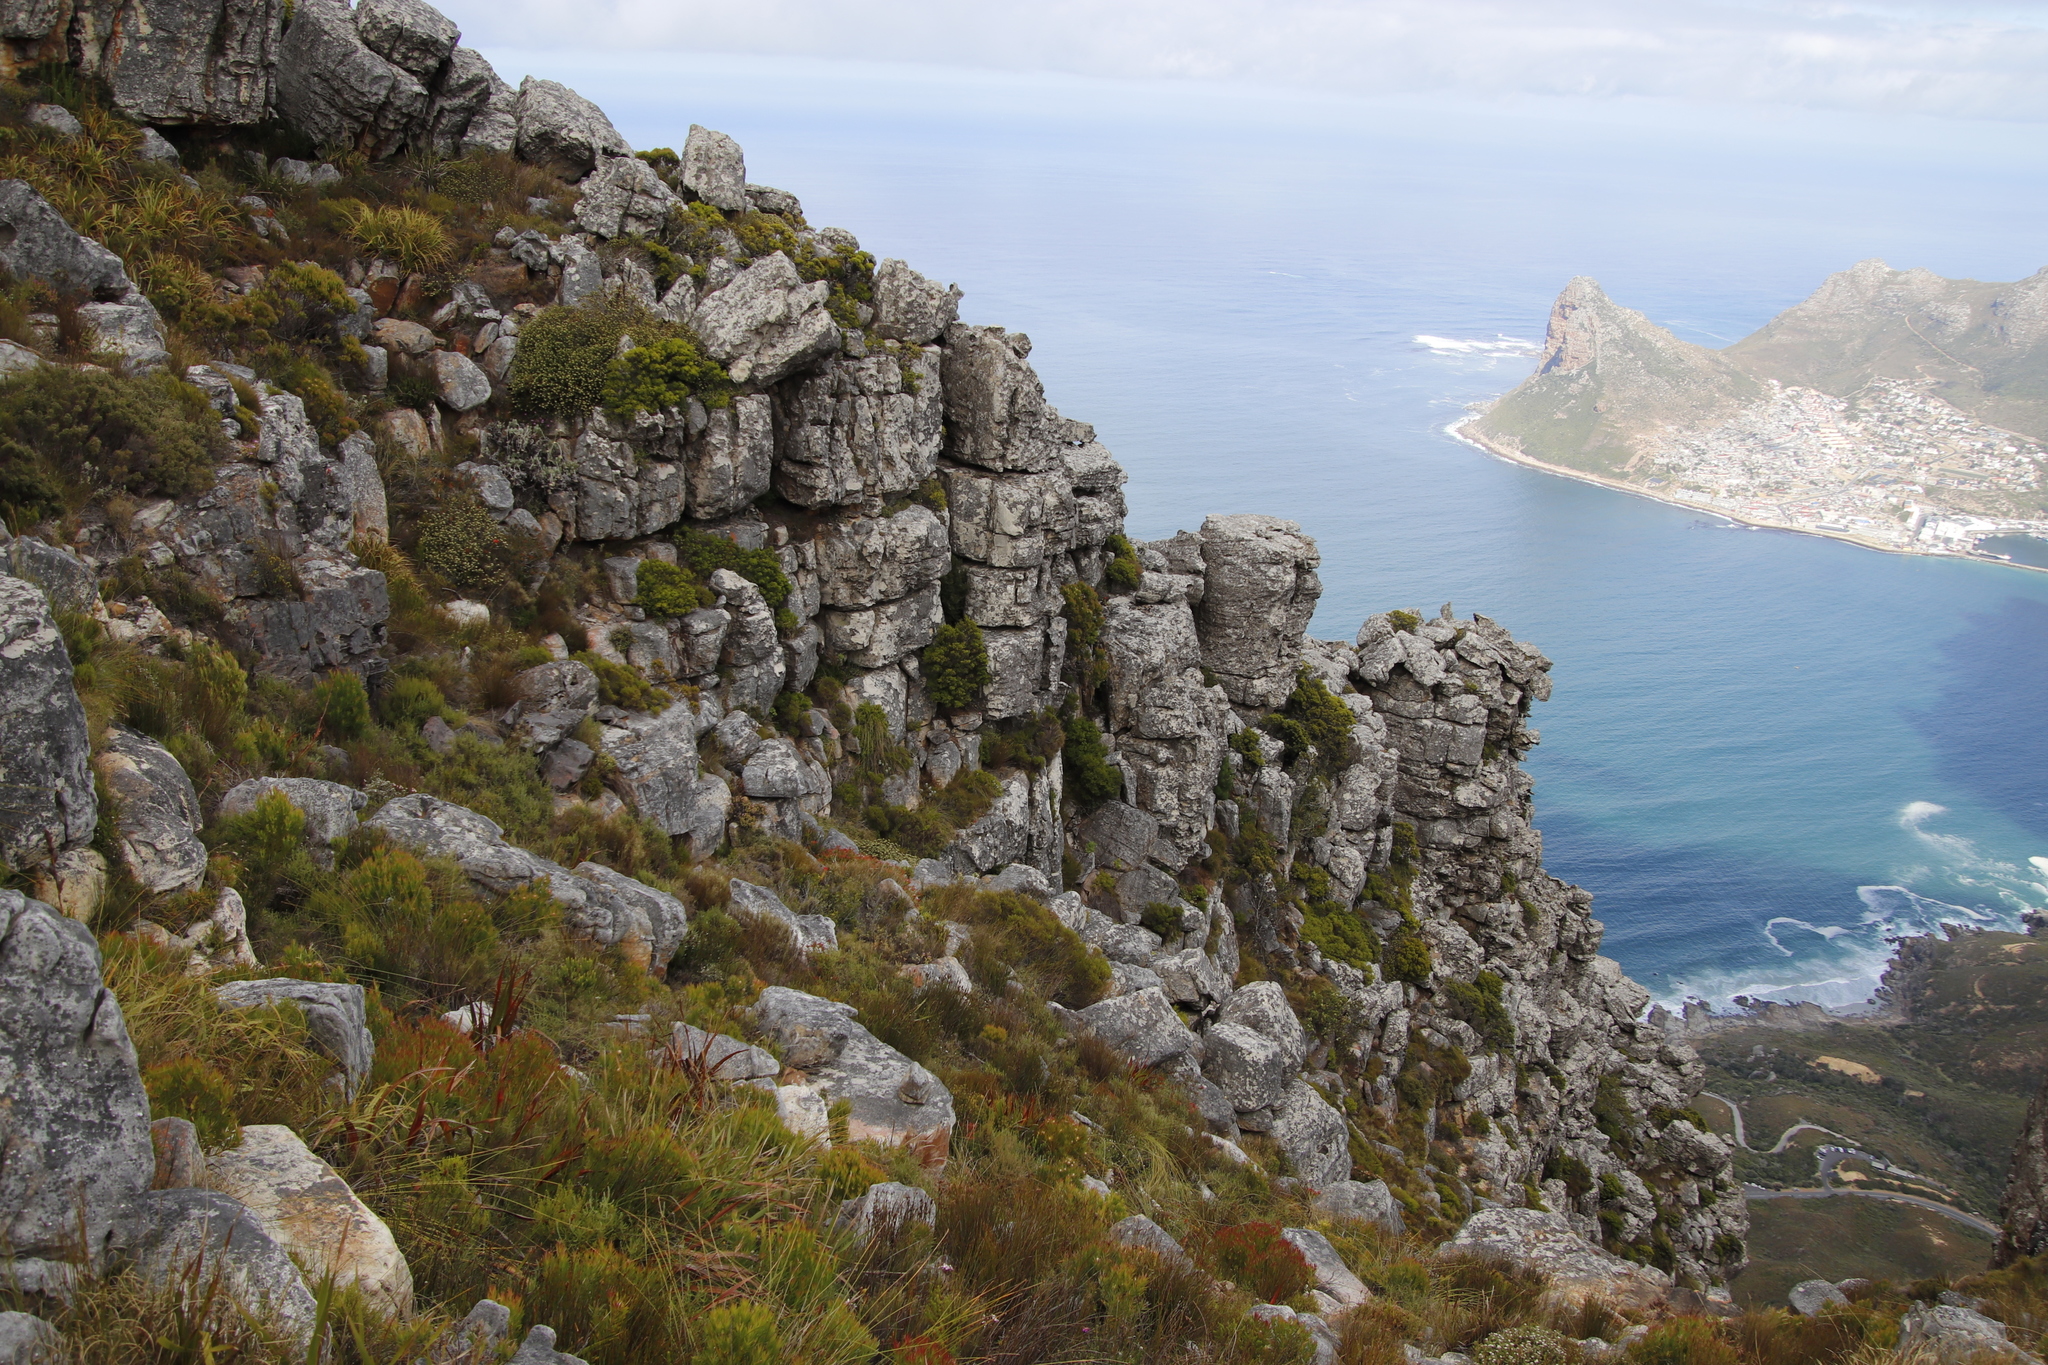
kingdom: Plantae
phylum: Tracheophyta
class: Magnoliopsida
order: Rosales
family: Rhamnaceae
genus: Phylica
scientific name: Phylica dioica
